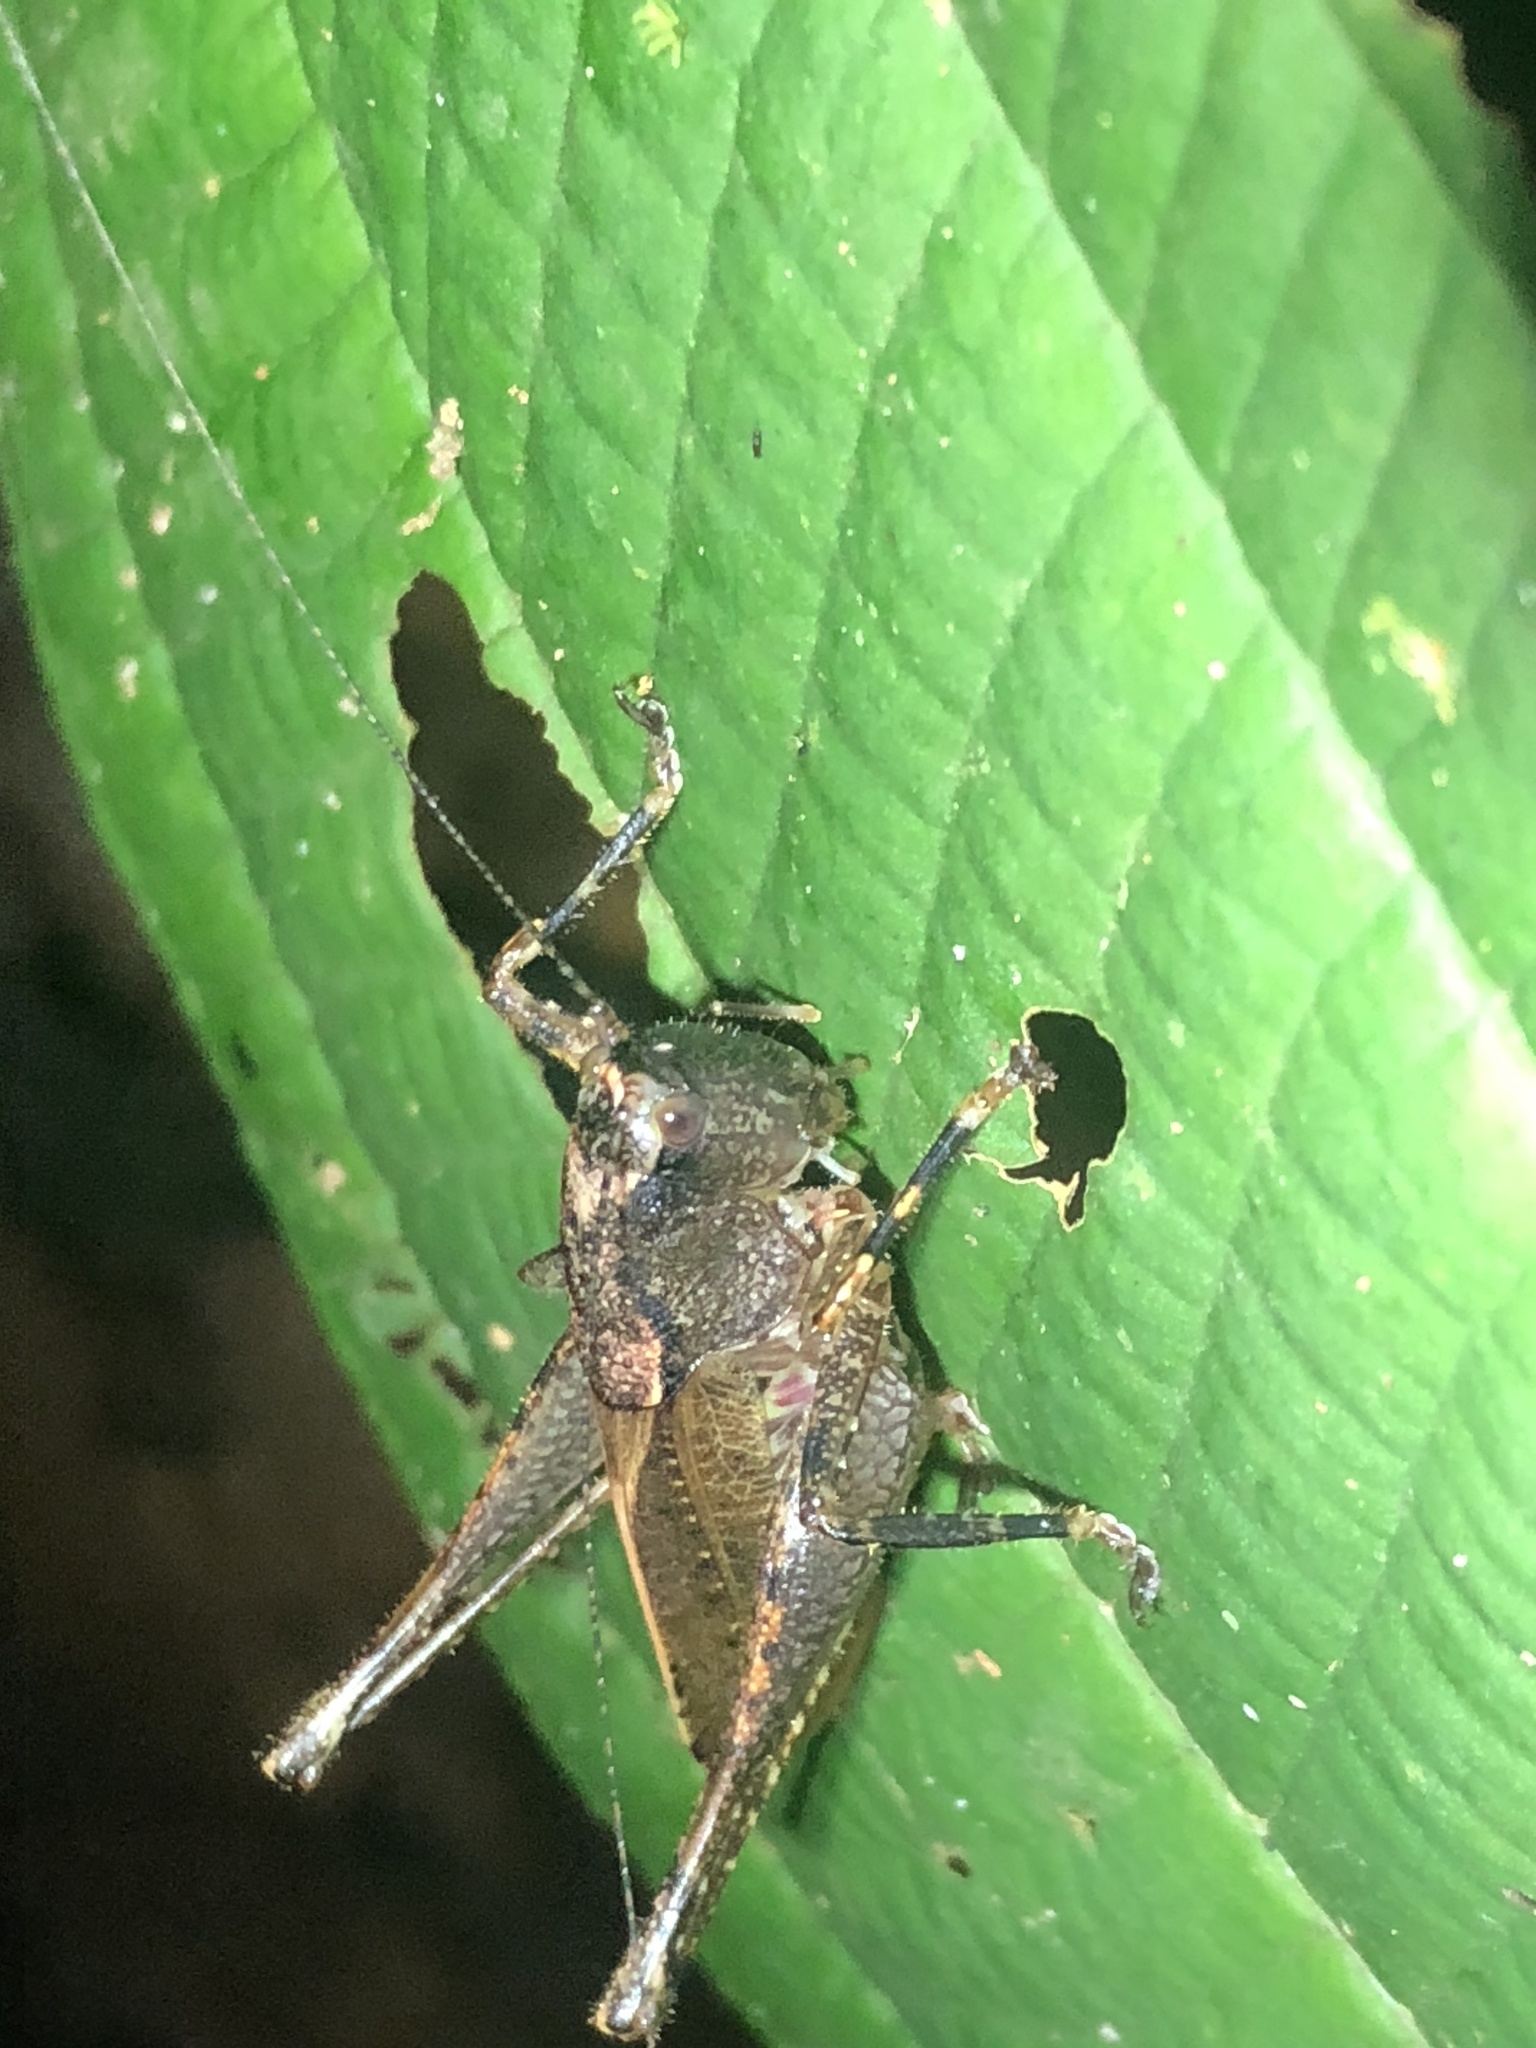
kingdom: Animalia
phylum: Arthropoda
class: Insecta
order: Orthoptera
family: Tettigoniidae
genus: Hyperomerus
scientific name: Hyperomerus amacayaca
